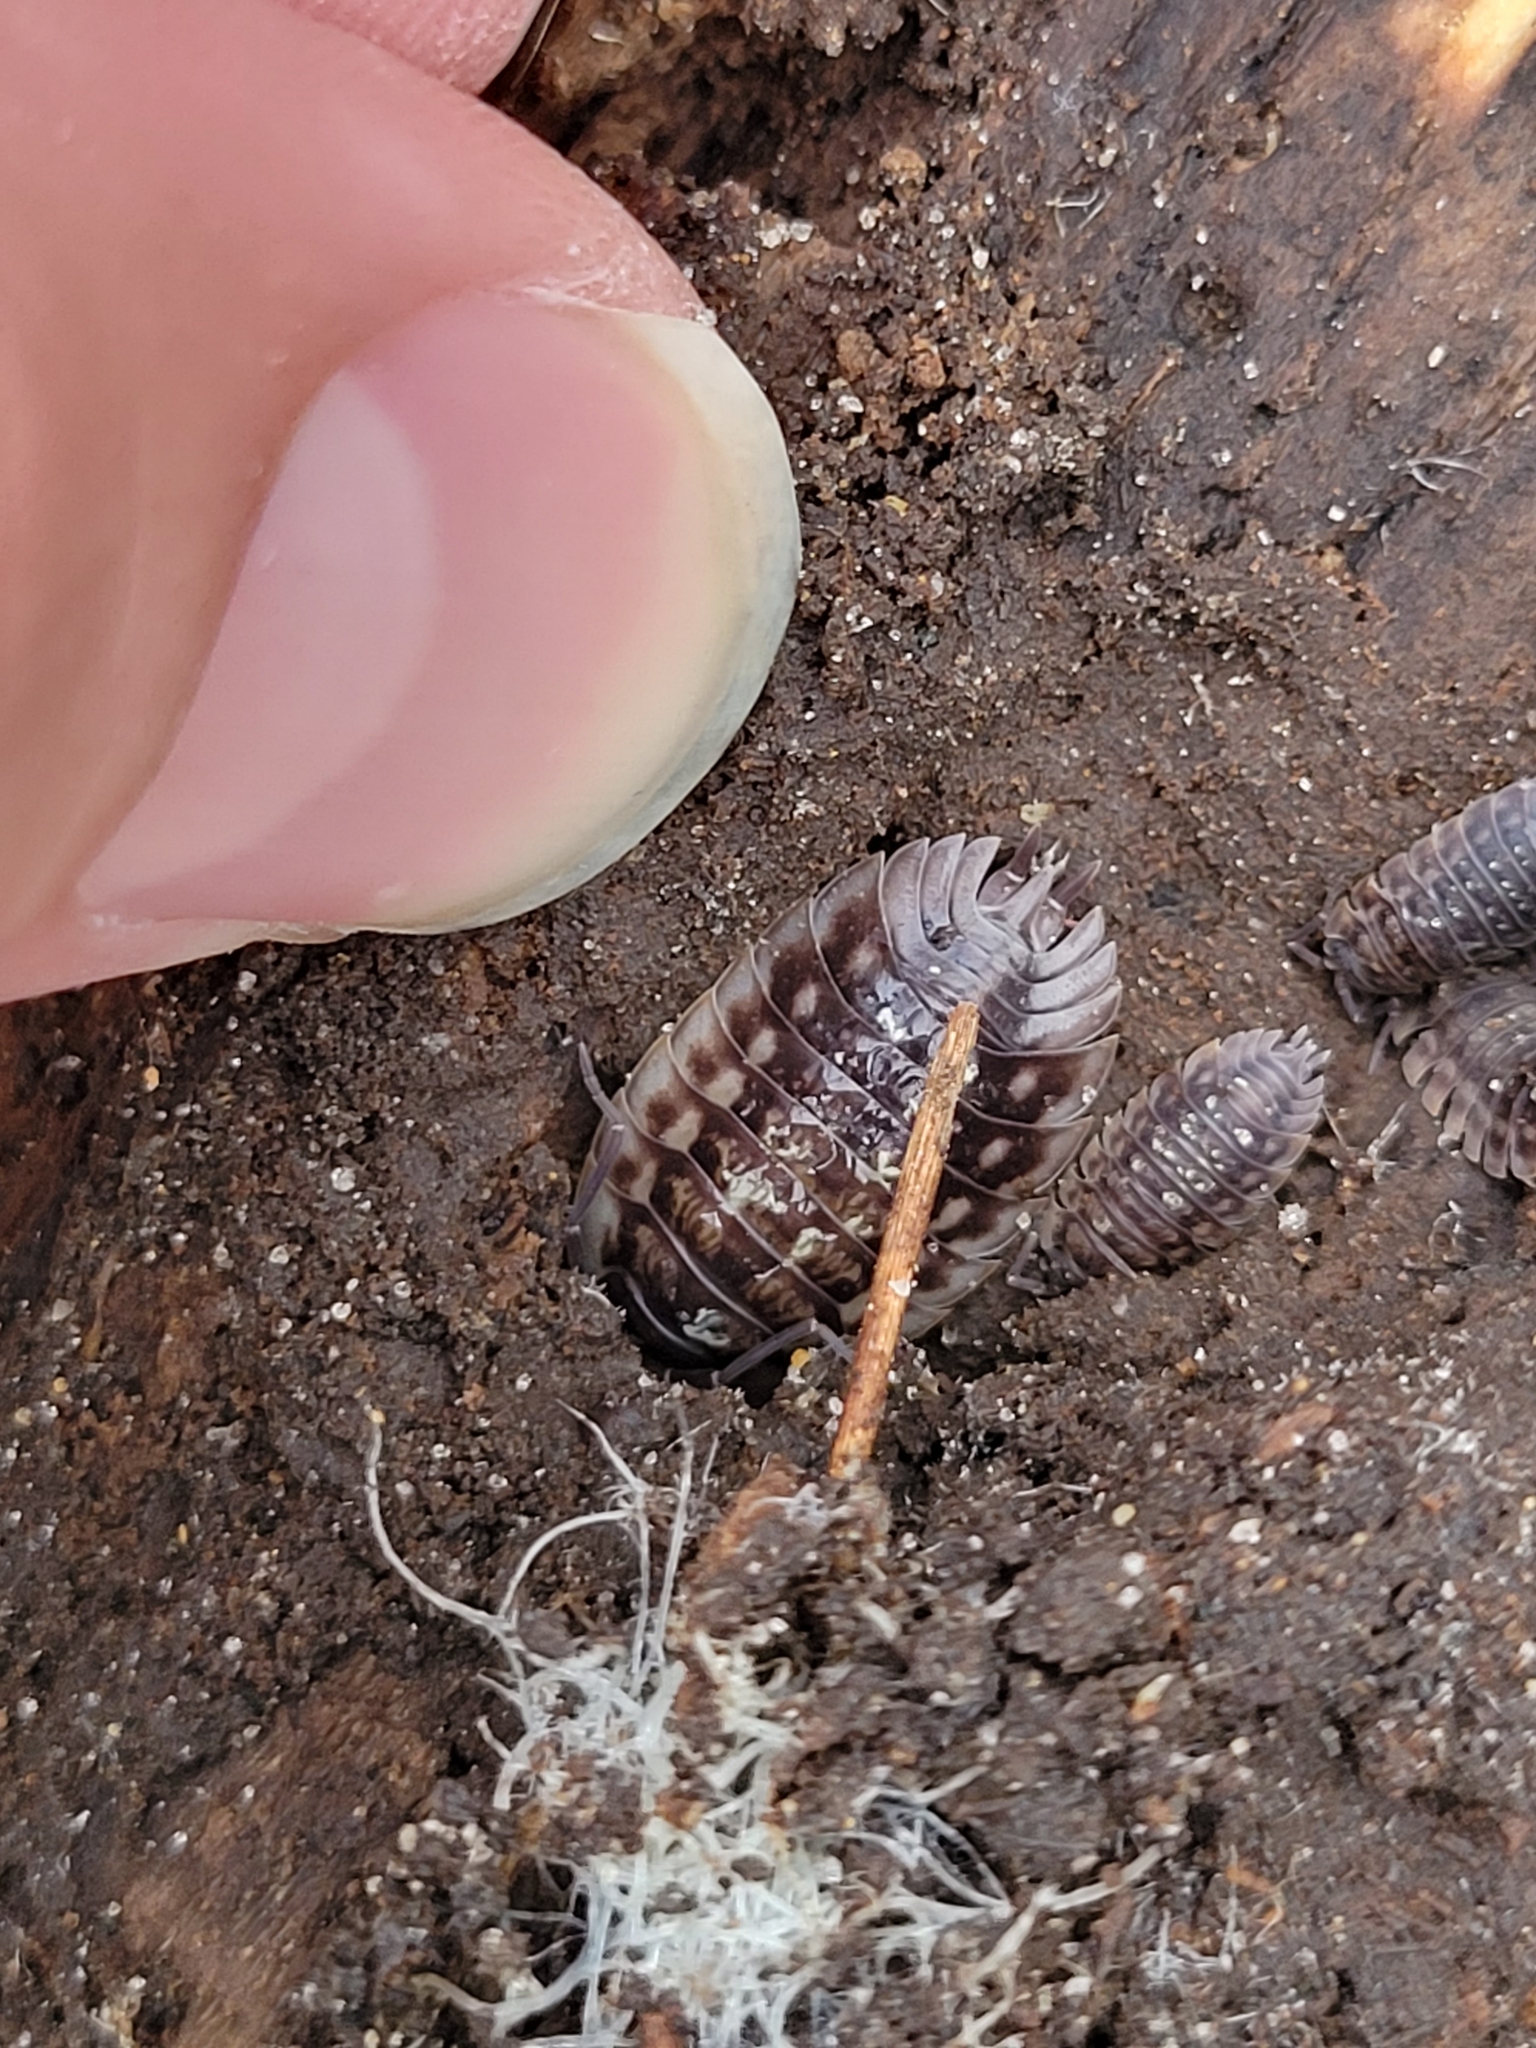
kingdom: Animalia
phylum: Arthropoda
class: Malacostraca
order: Isopoda
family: Oniscidae
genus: Oniscus
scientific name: Oniscus asellus
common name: Common shiny woodlouse
